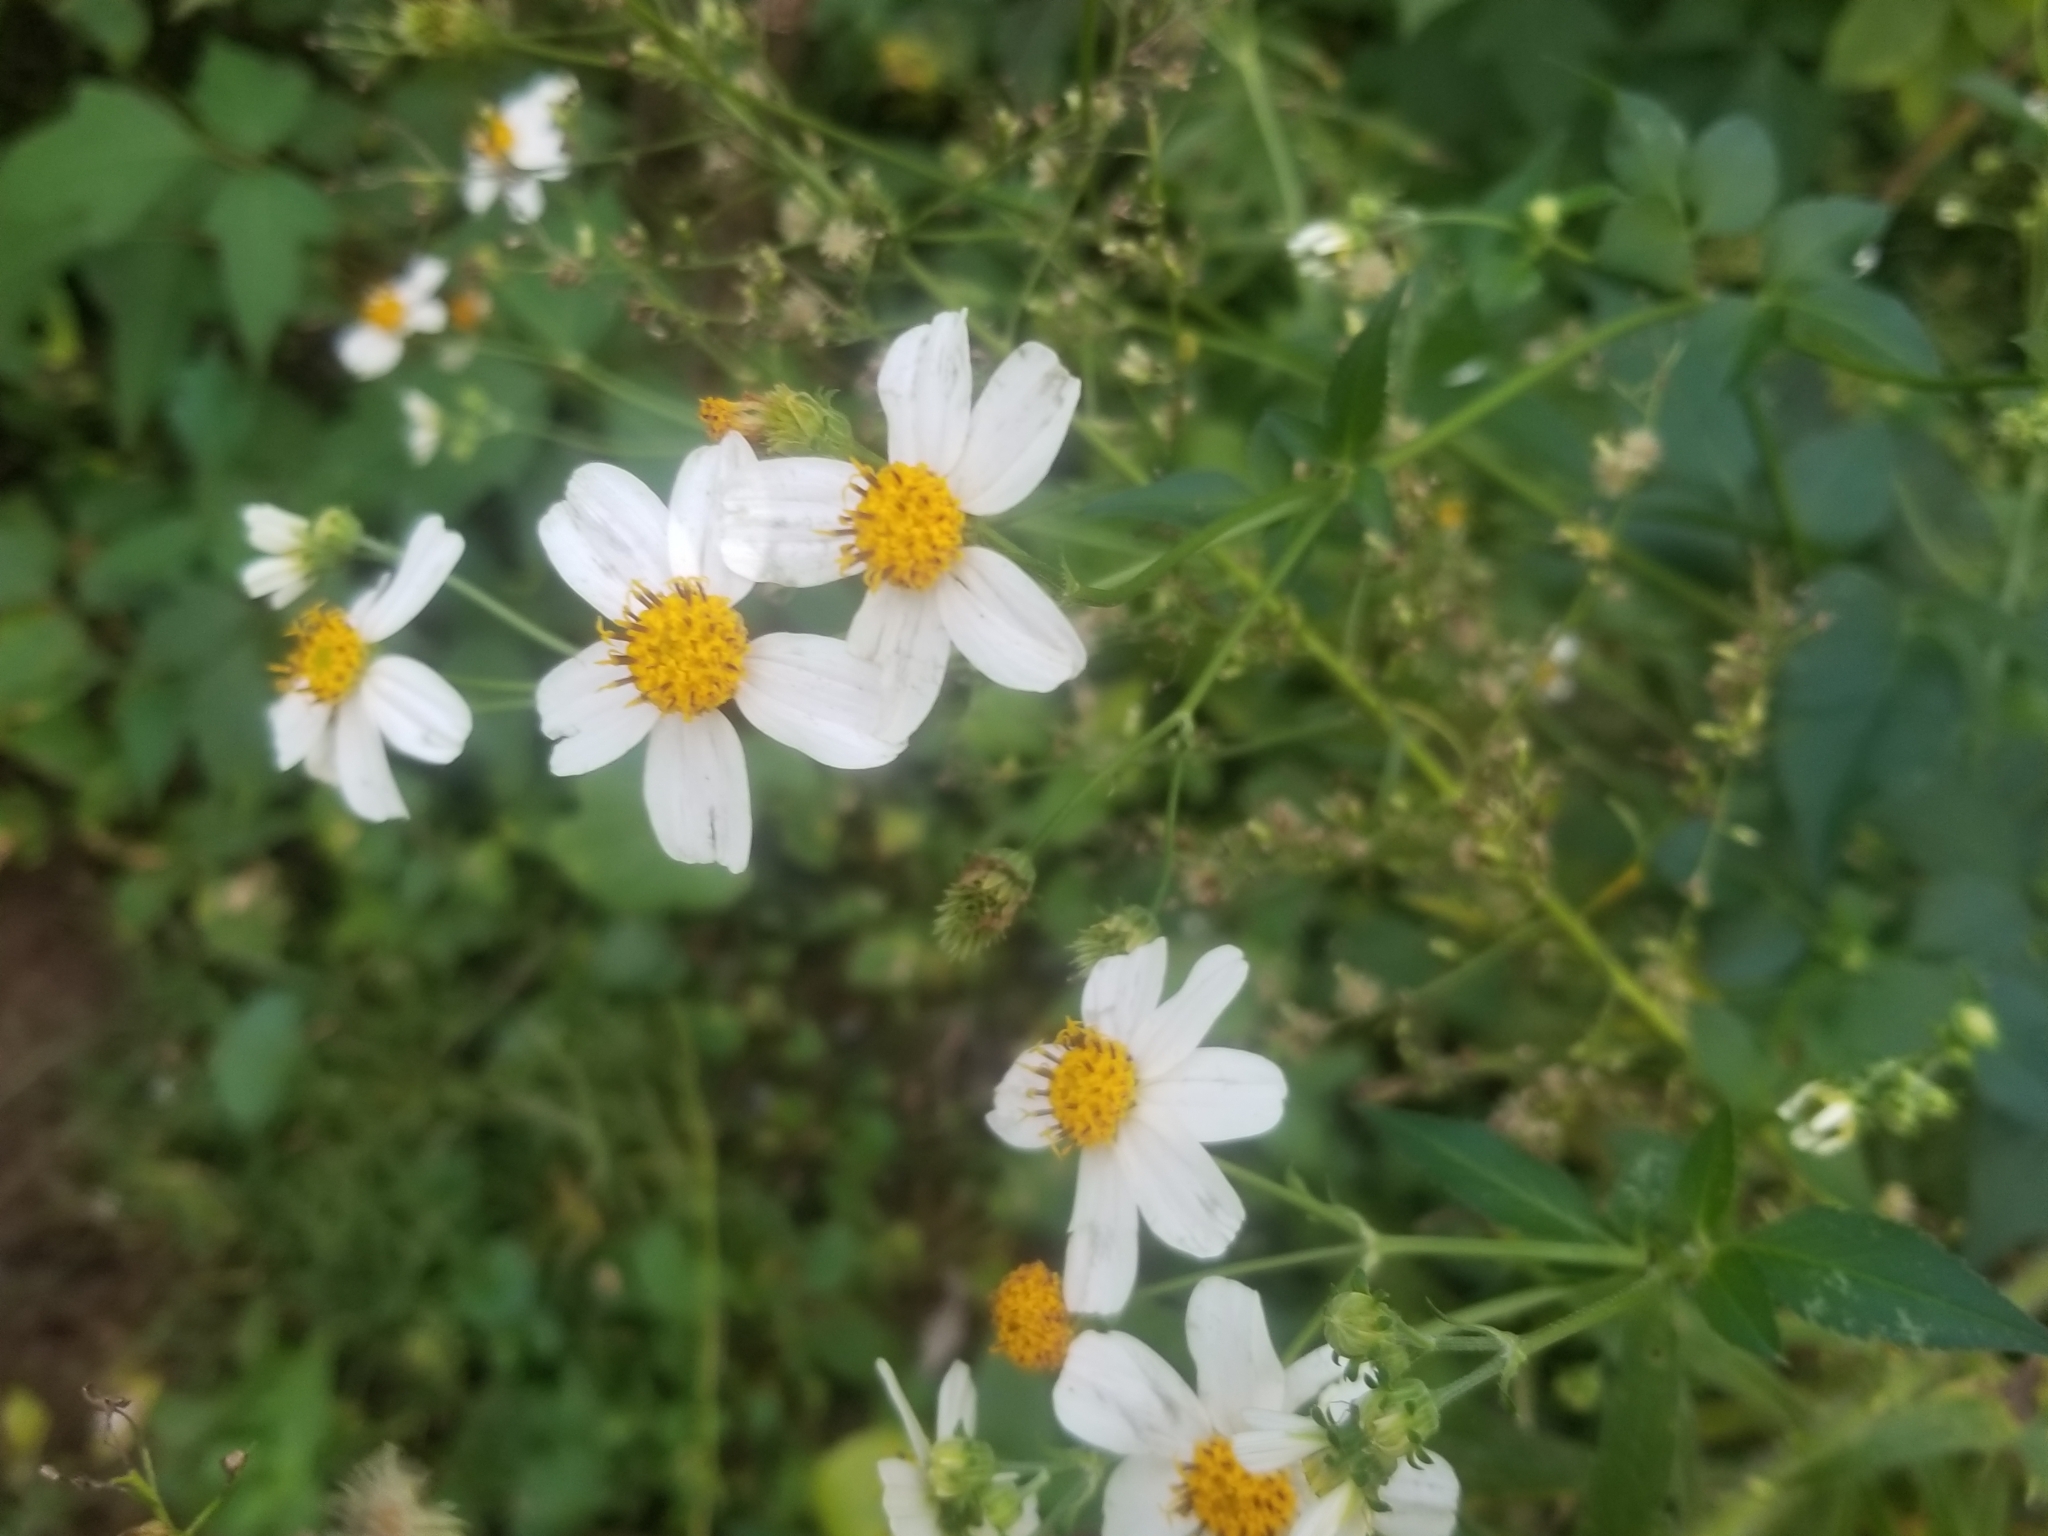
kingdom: Plantae
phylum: Tracheophyta
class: Magnoliopsida
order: Asterales
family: Asteraceae
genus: Bidens
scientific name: Bidens alba
